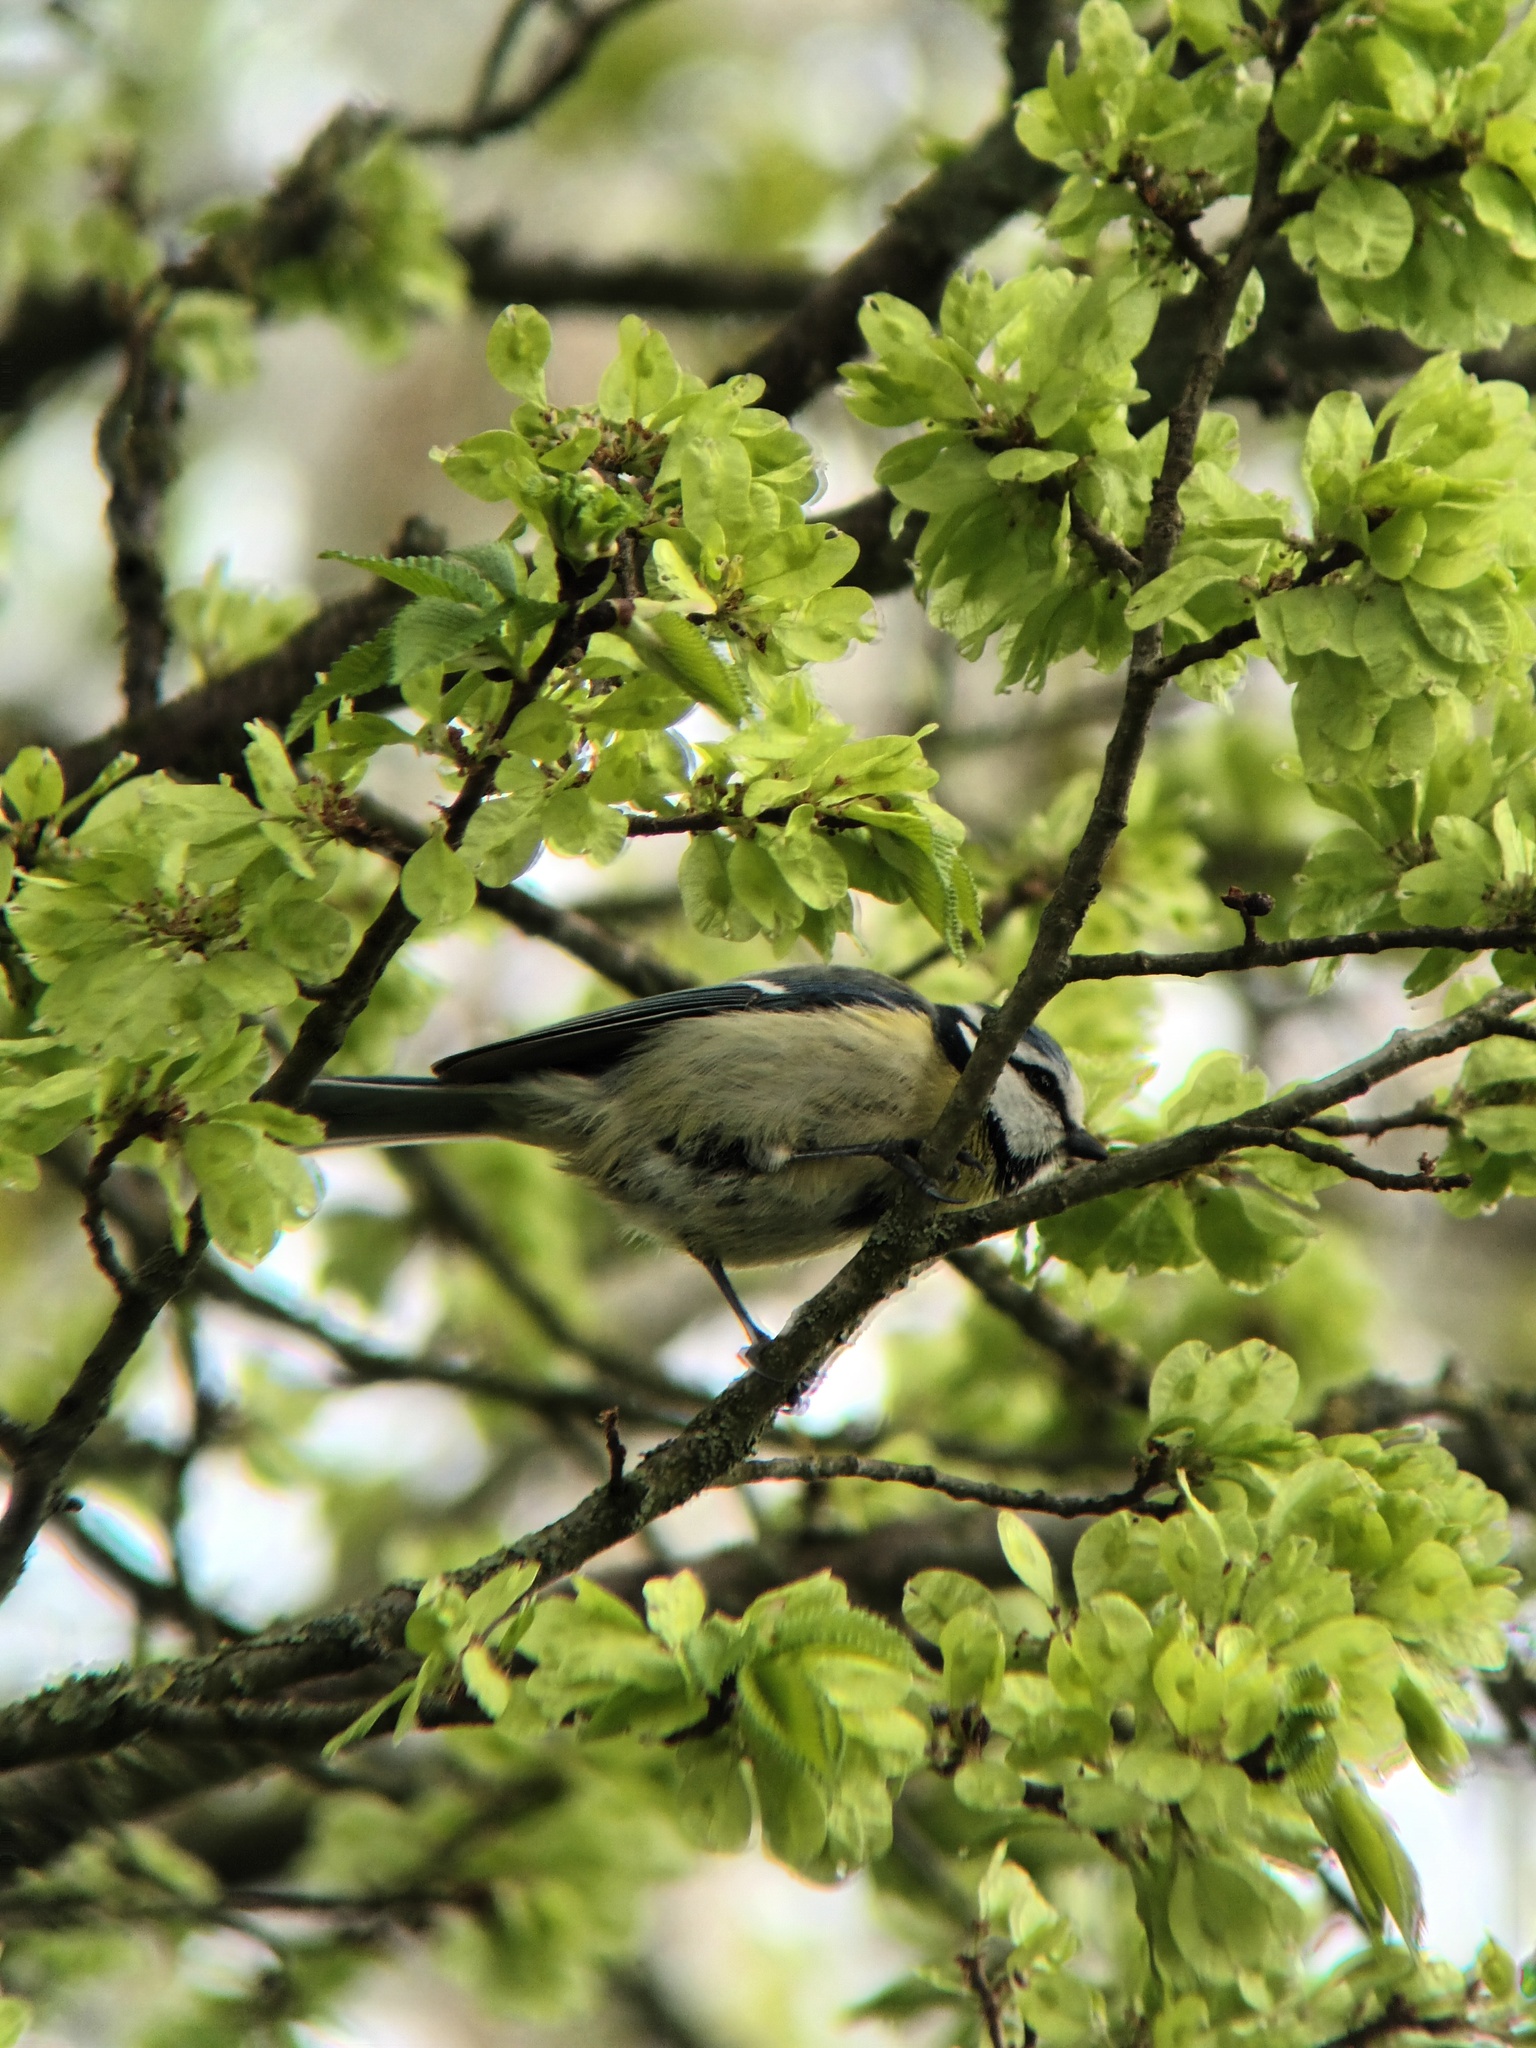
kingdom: Animalia
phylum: Chordata
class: Aves
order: Passeriformes
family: Paridae
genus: Cyanistes
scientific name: Cyanistes caeruleus
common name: Eurasian blue tit
